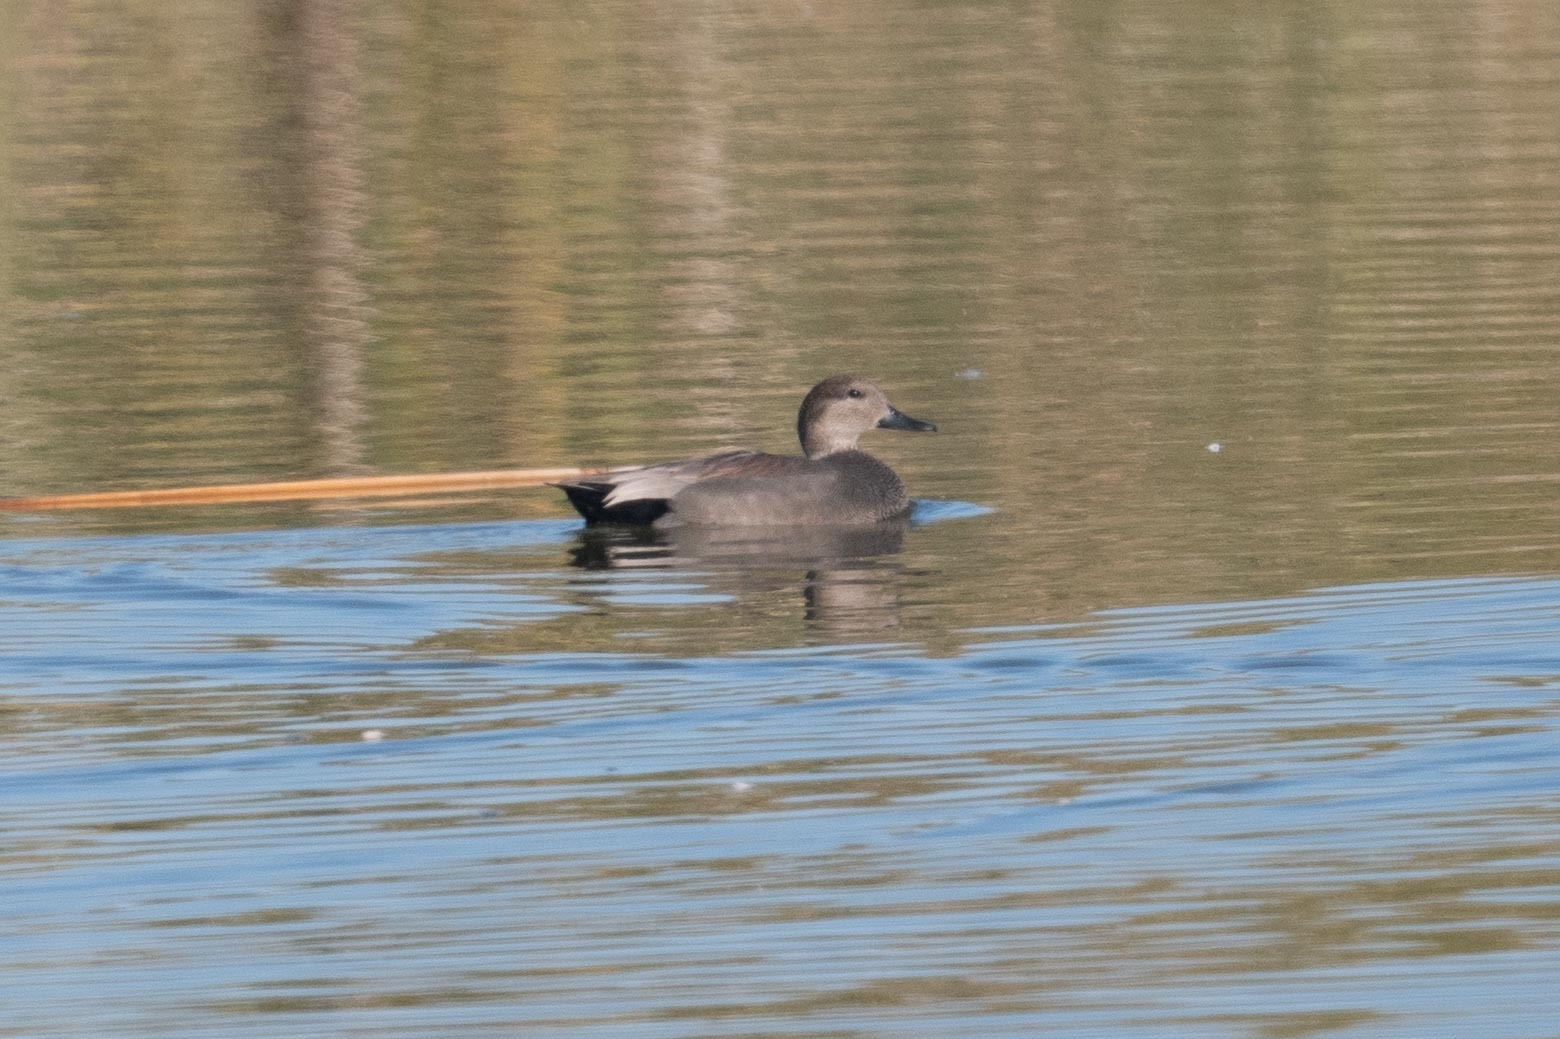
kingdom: Animalia
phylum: Chordata
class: Aves
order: Anseriformes
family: Anatidae
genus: Mareca
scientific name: Mareca strepera
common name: Gadwall
